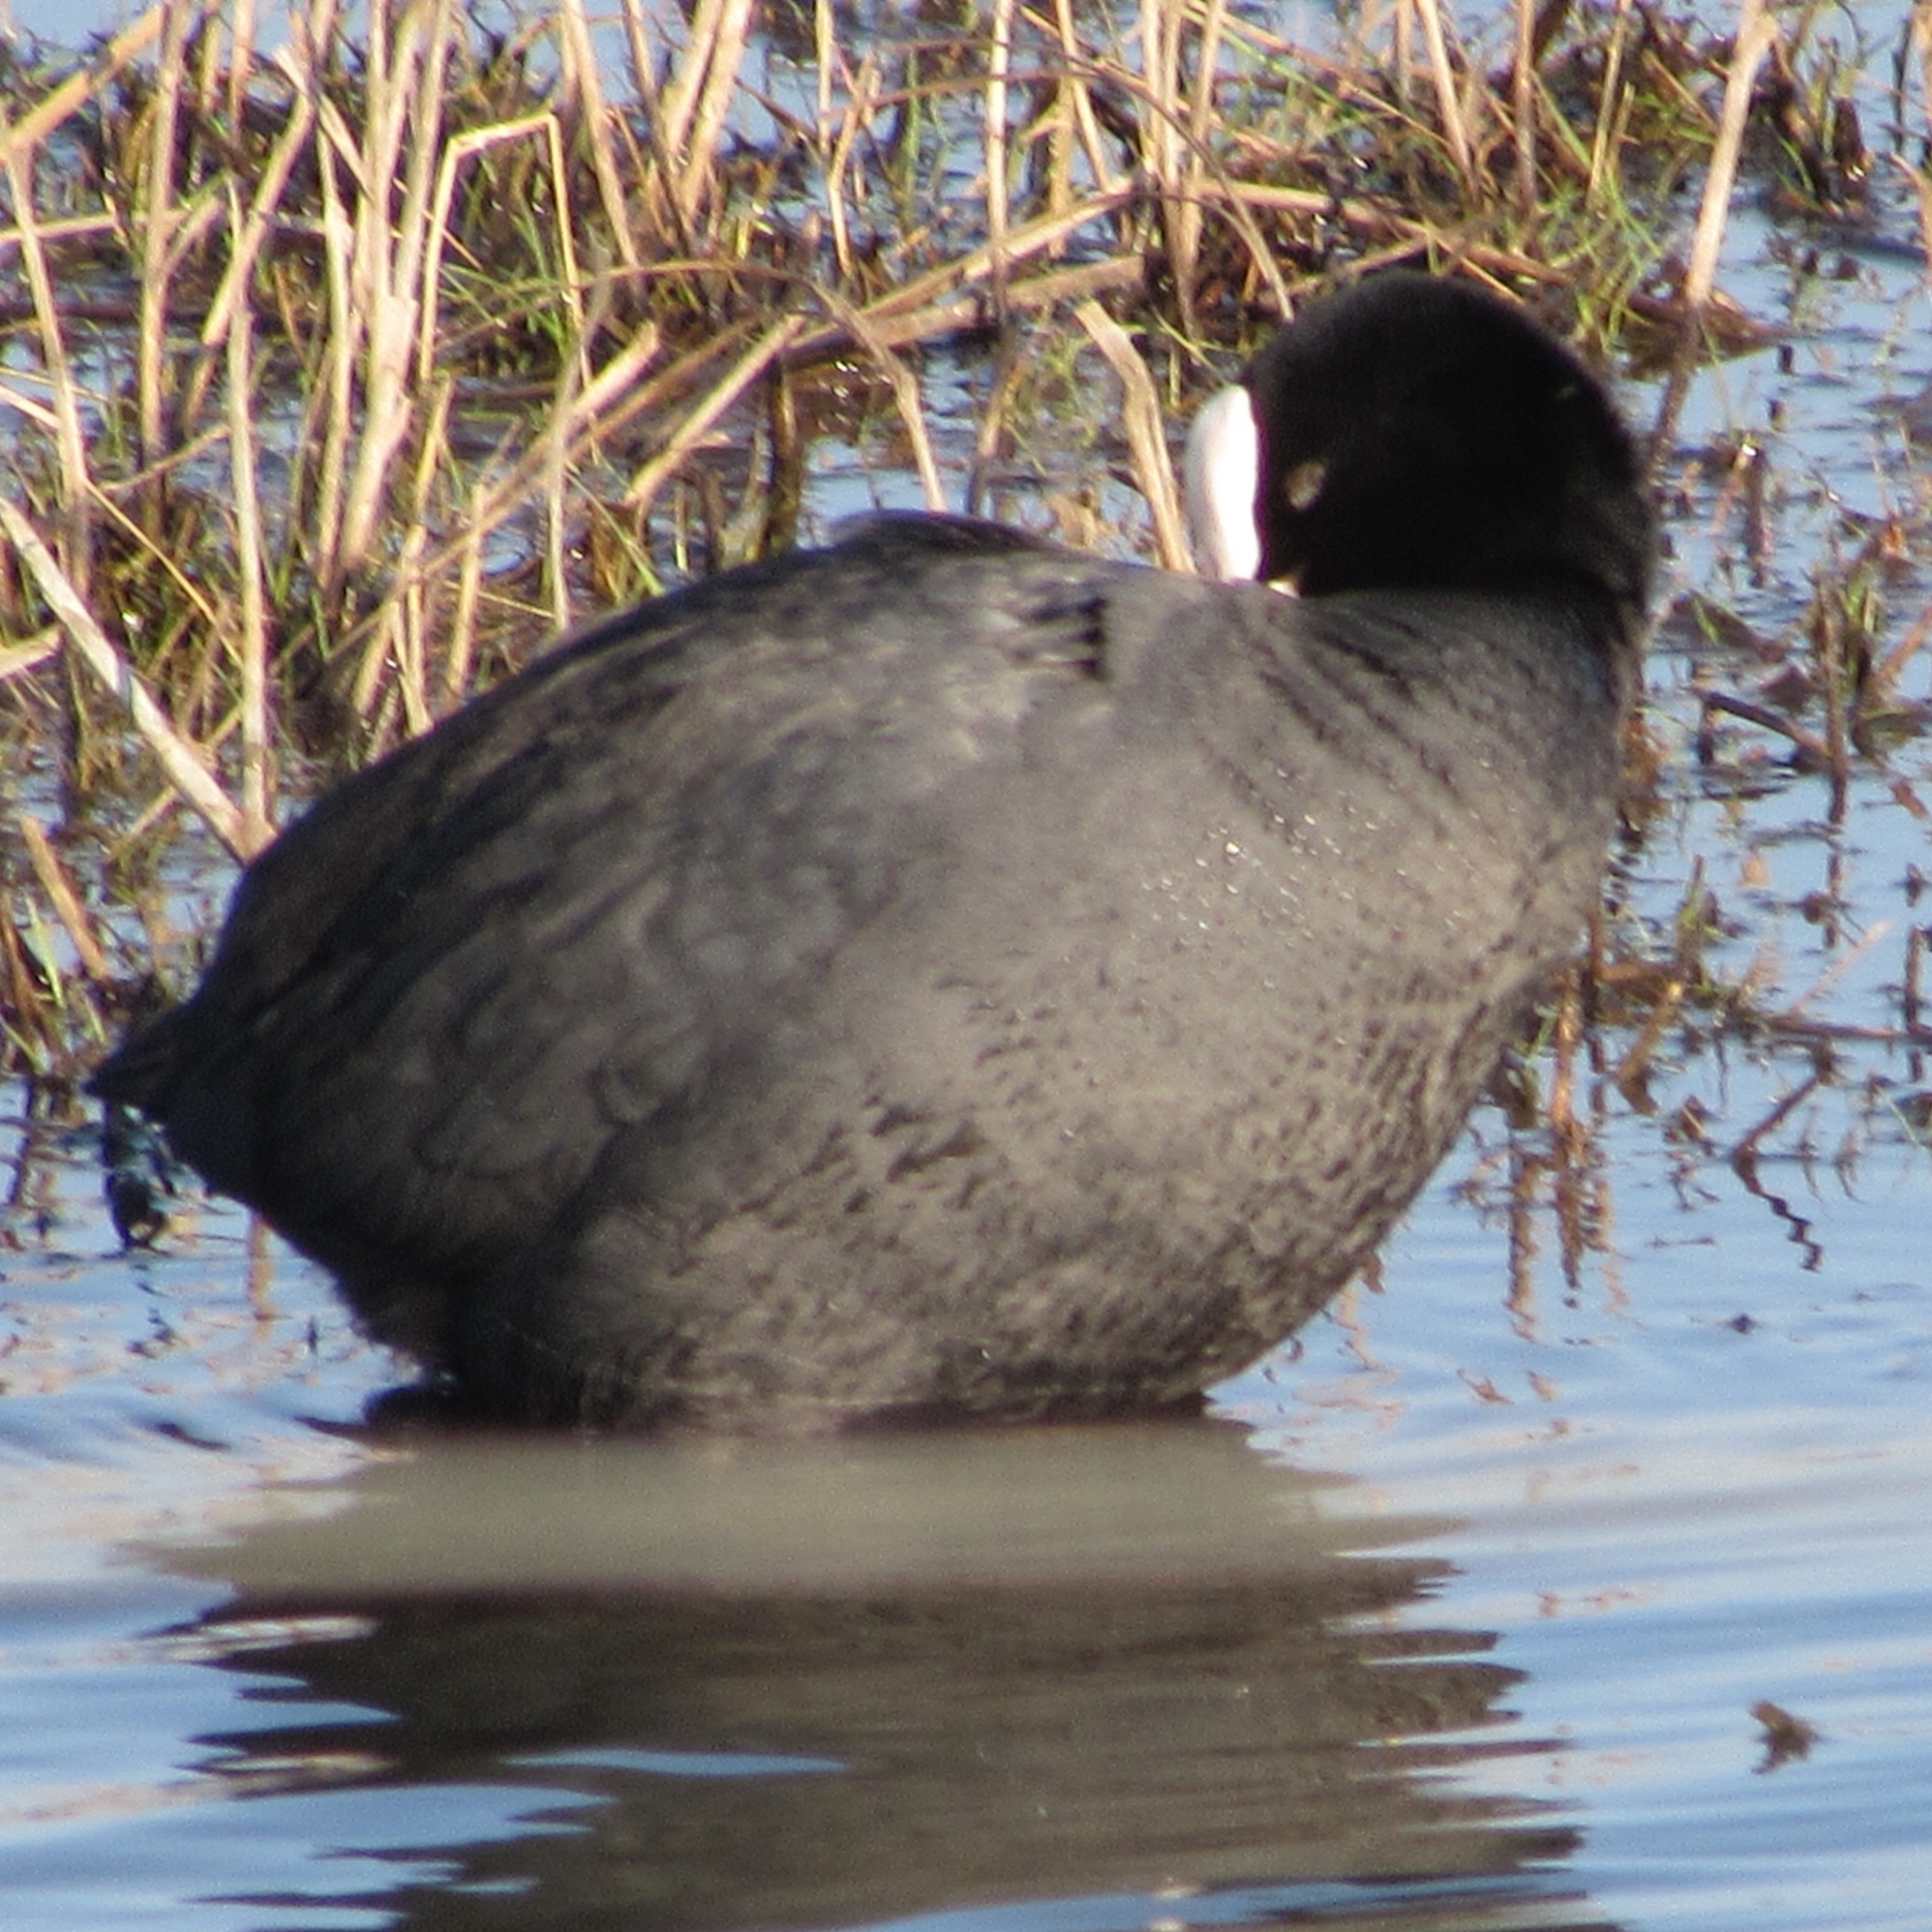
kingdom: Animalia
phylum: Chordata
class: Aves
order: Gruiformes
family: Rallidae
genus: Fulica
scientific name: Fulica atra
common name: Eurasian coot
